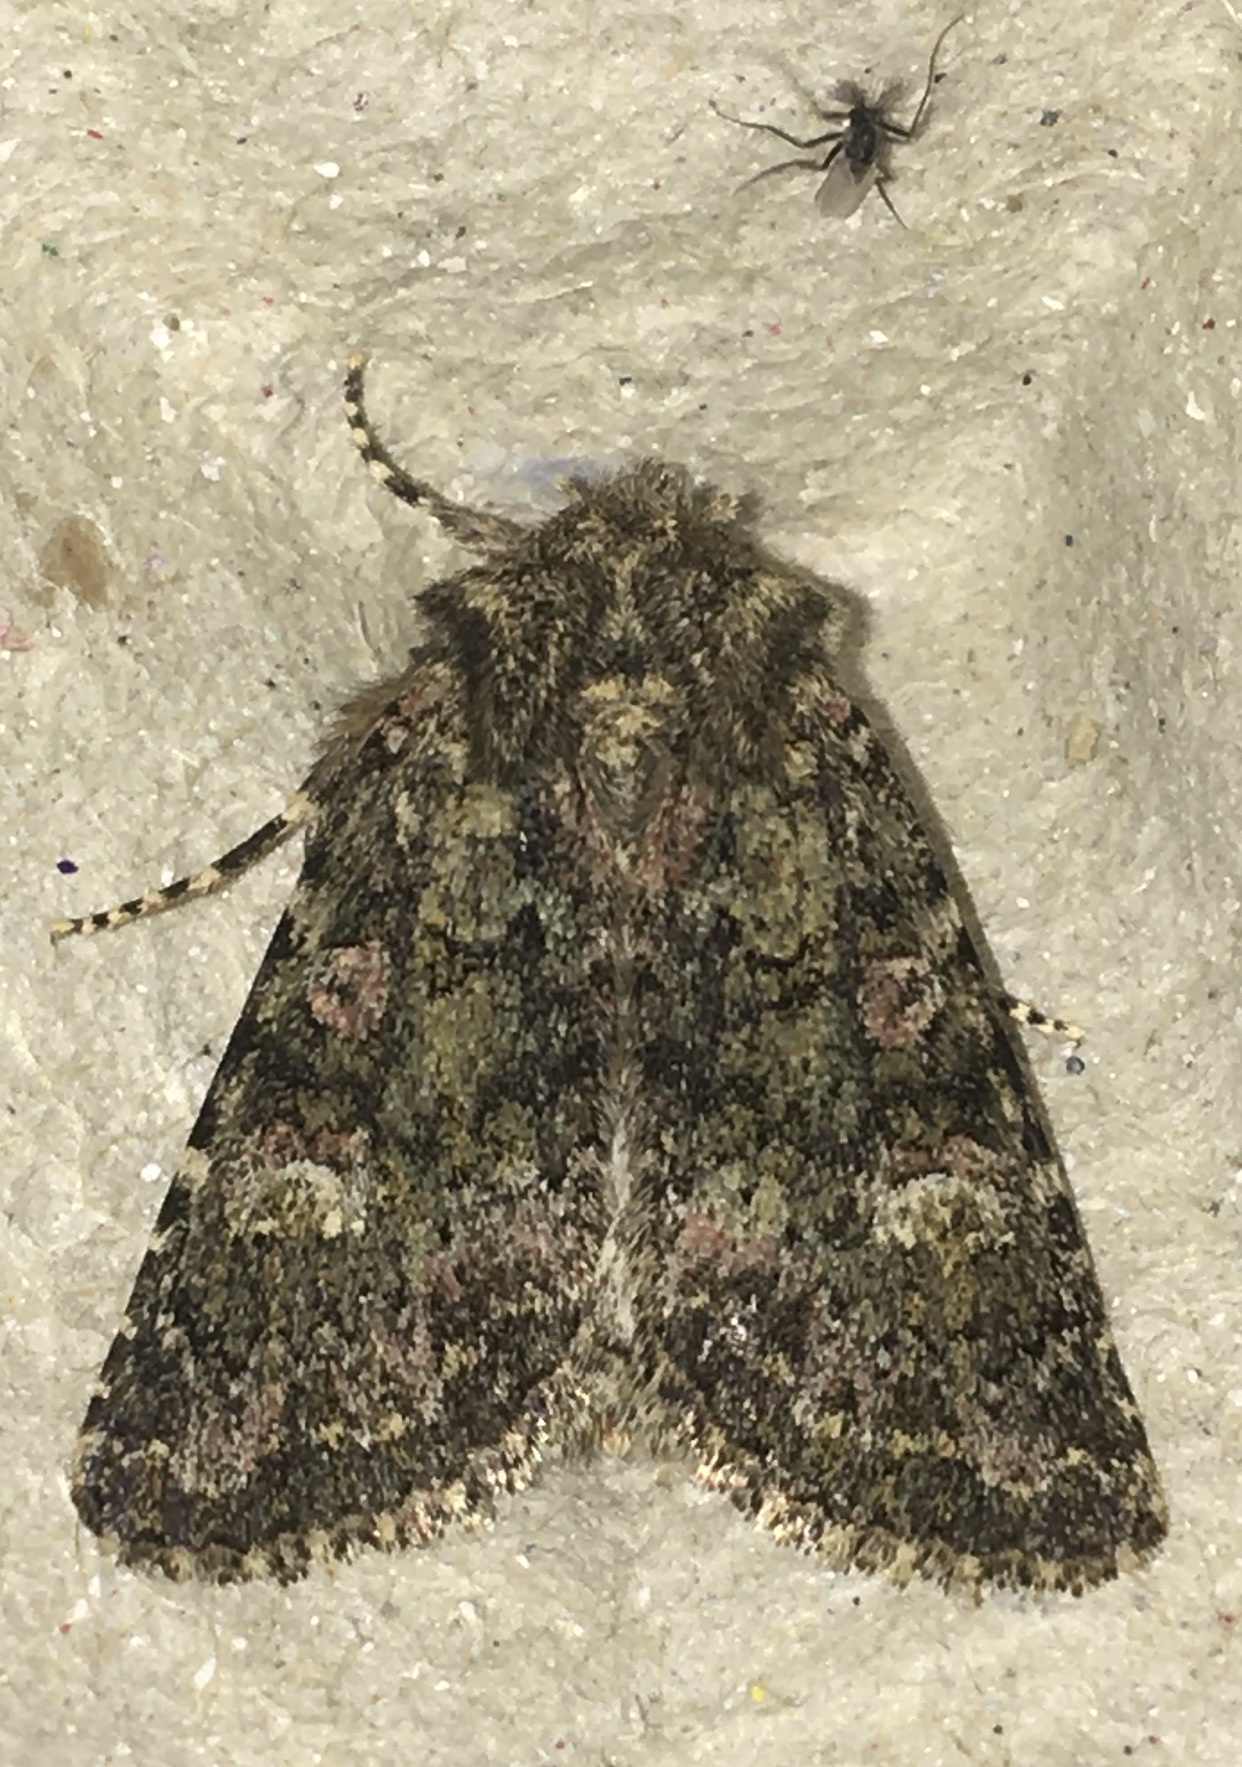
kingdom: Animalia
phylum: Arthropoda
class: Insecta
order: Lepidoptera
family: Noctuidae
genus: Polymixis
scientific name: Polymixis lichenea
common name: Feathered ranunculus
